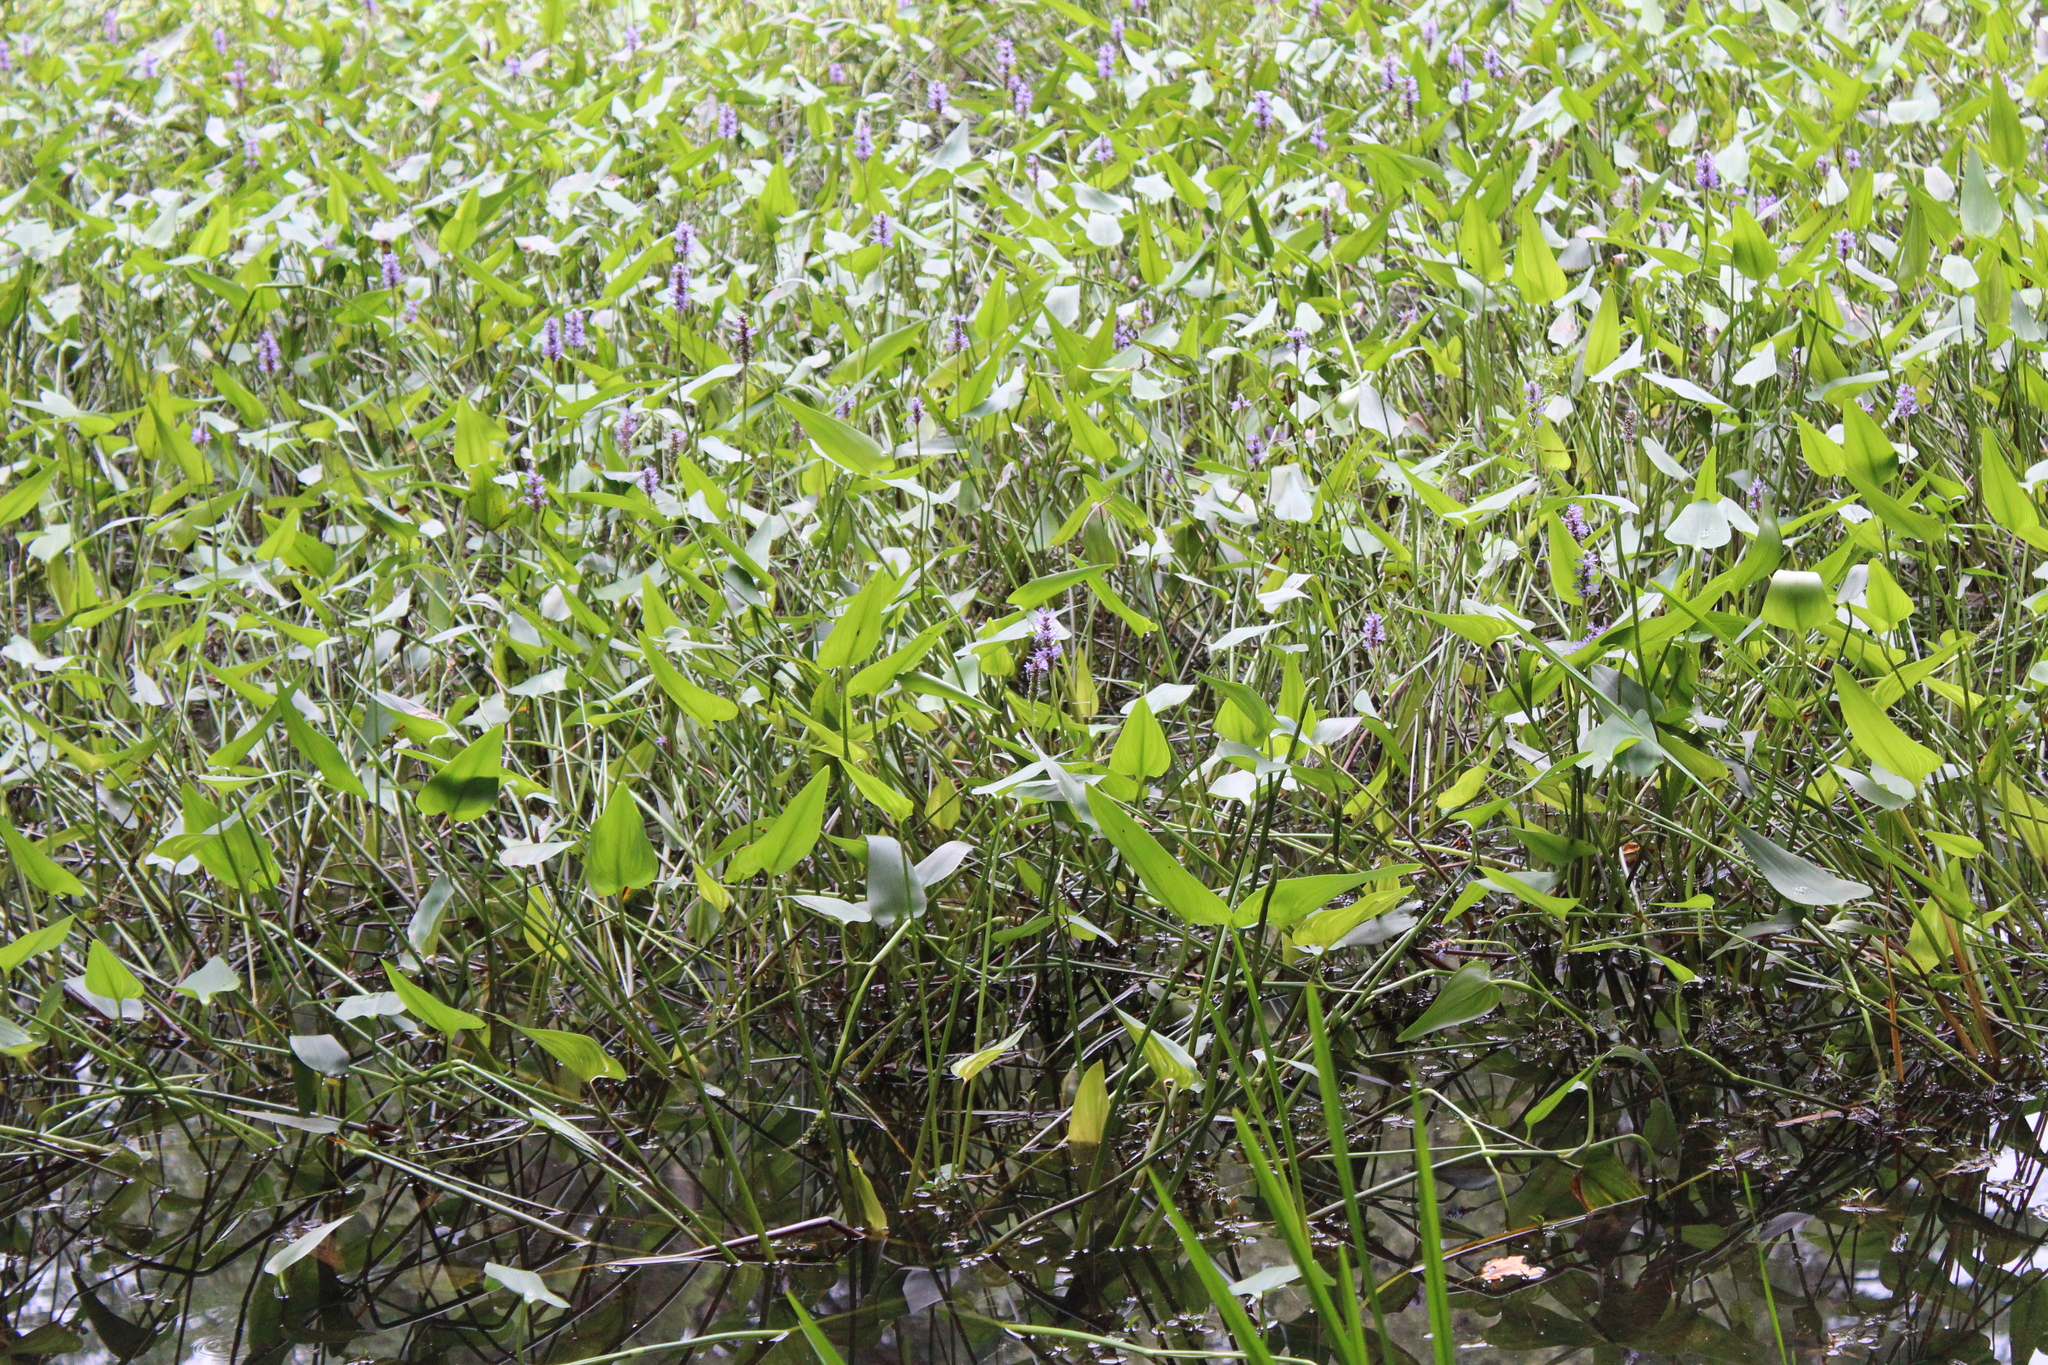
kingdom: Plantae
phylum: Tracheophyta
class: Liliopsida
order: Commelinales
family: Pontederiaceae
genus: Pontederia
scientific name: Pontederia cordata
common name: Pickerelweed
